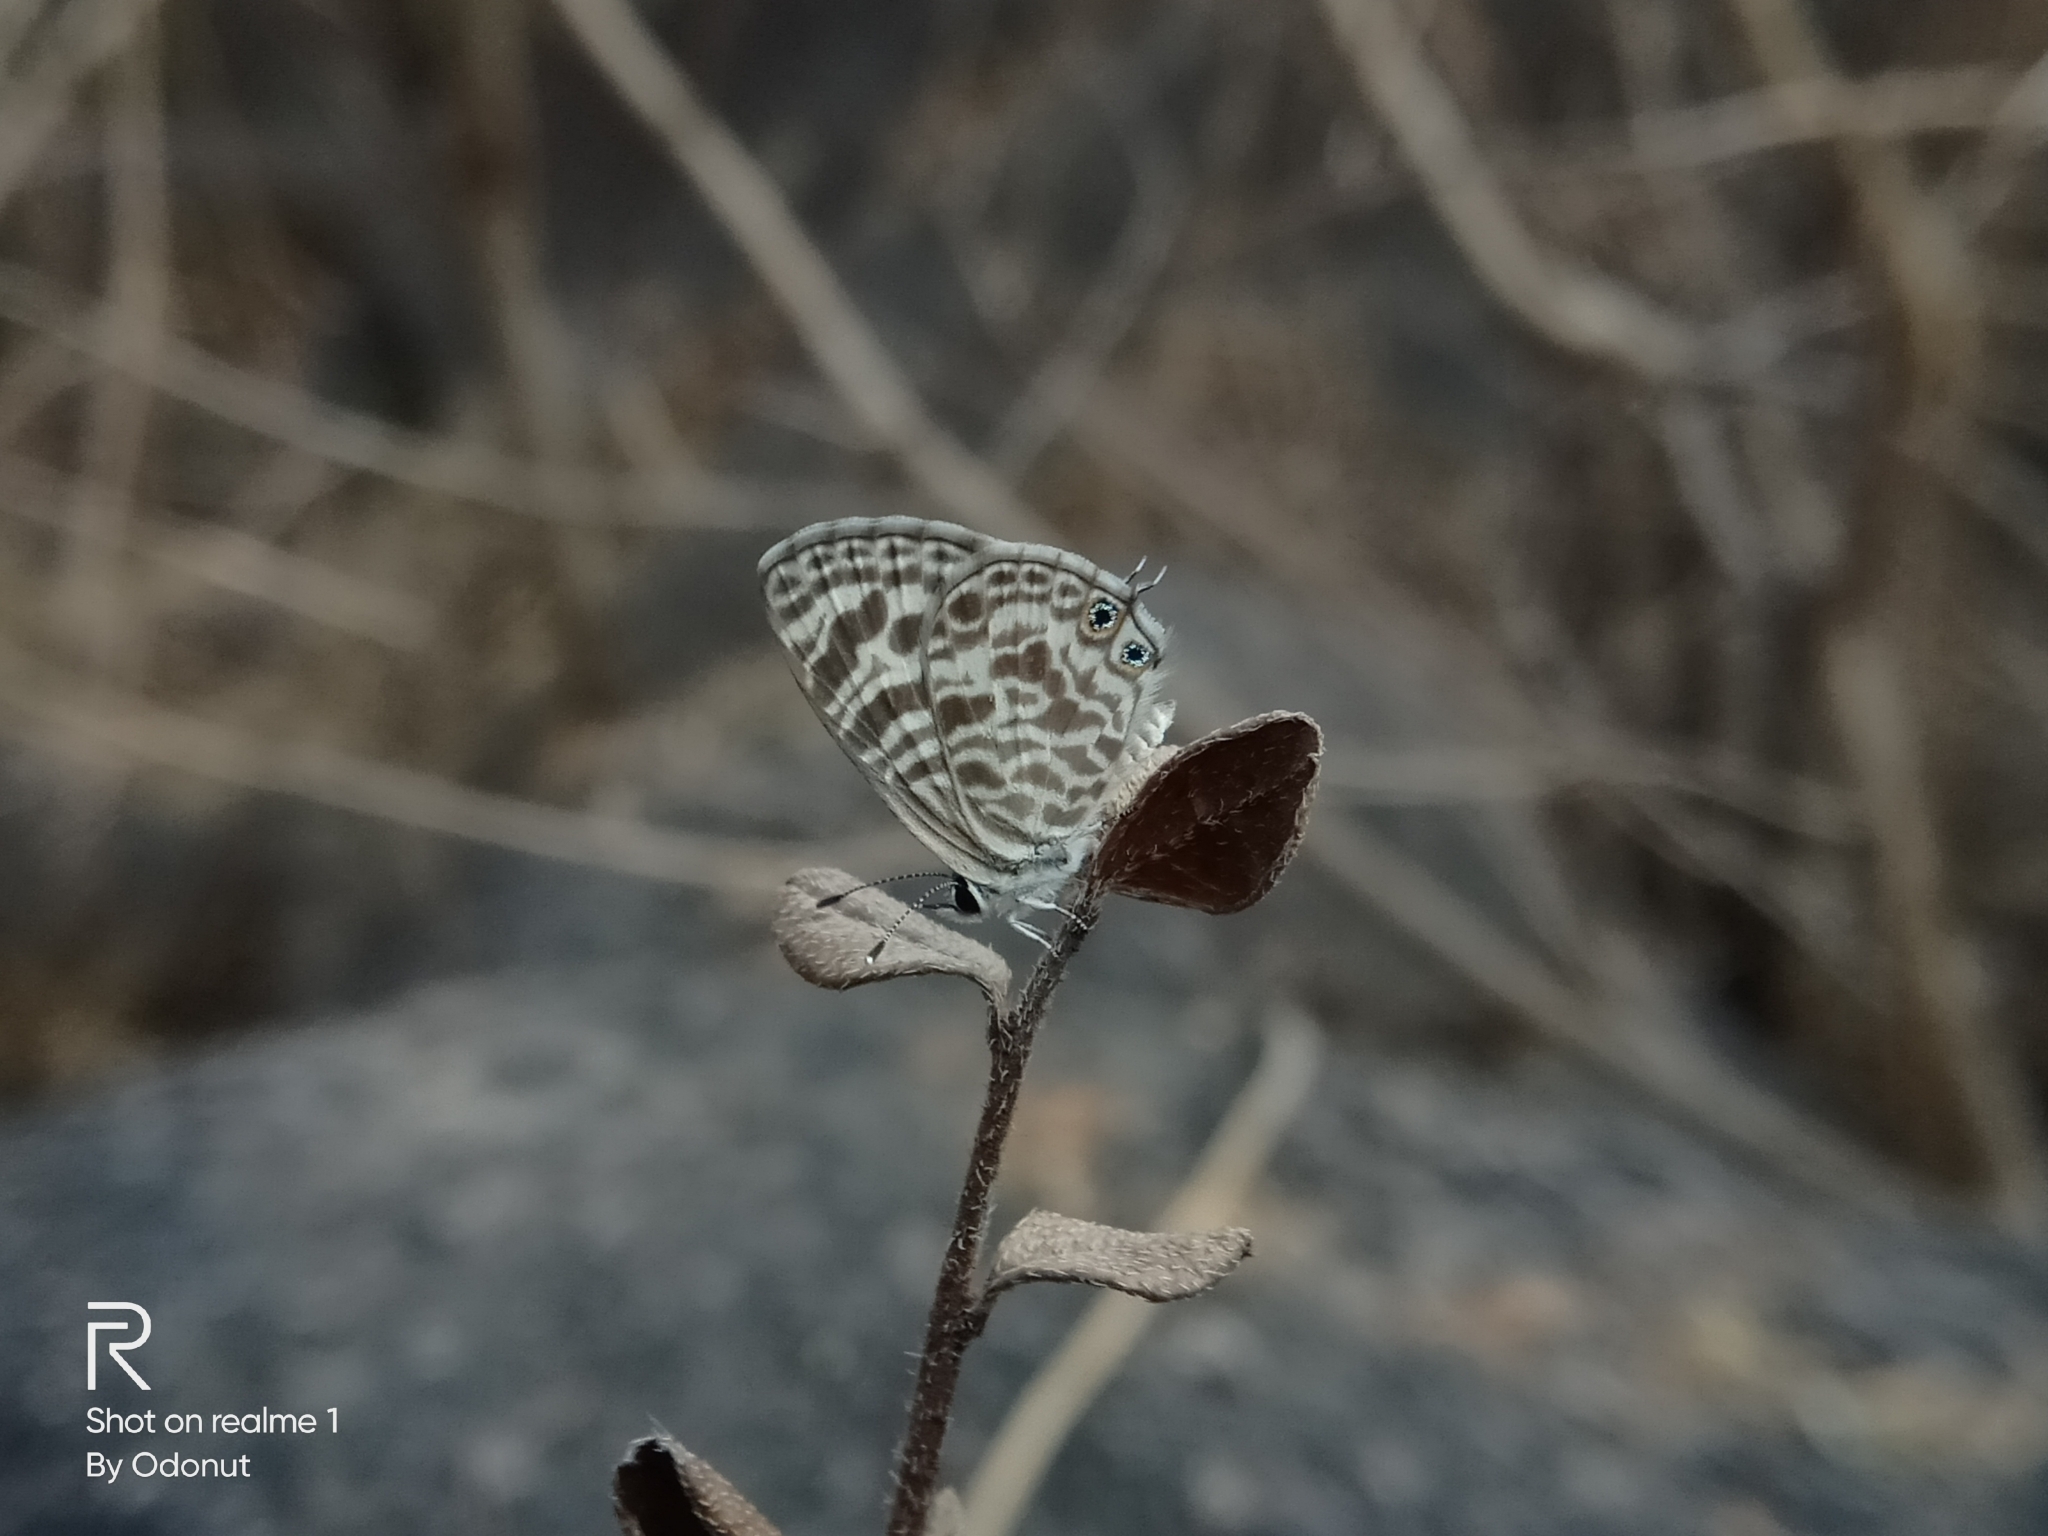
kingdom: Animalia
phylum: Arthropoda
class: Insecta
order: Lepidoptera
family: Lycaenidae
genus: Leptotes
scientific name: Leptotes plinius
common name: Zebra blue
